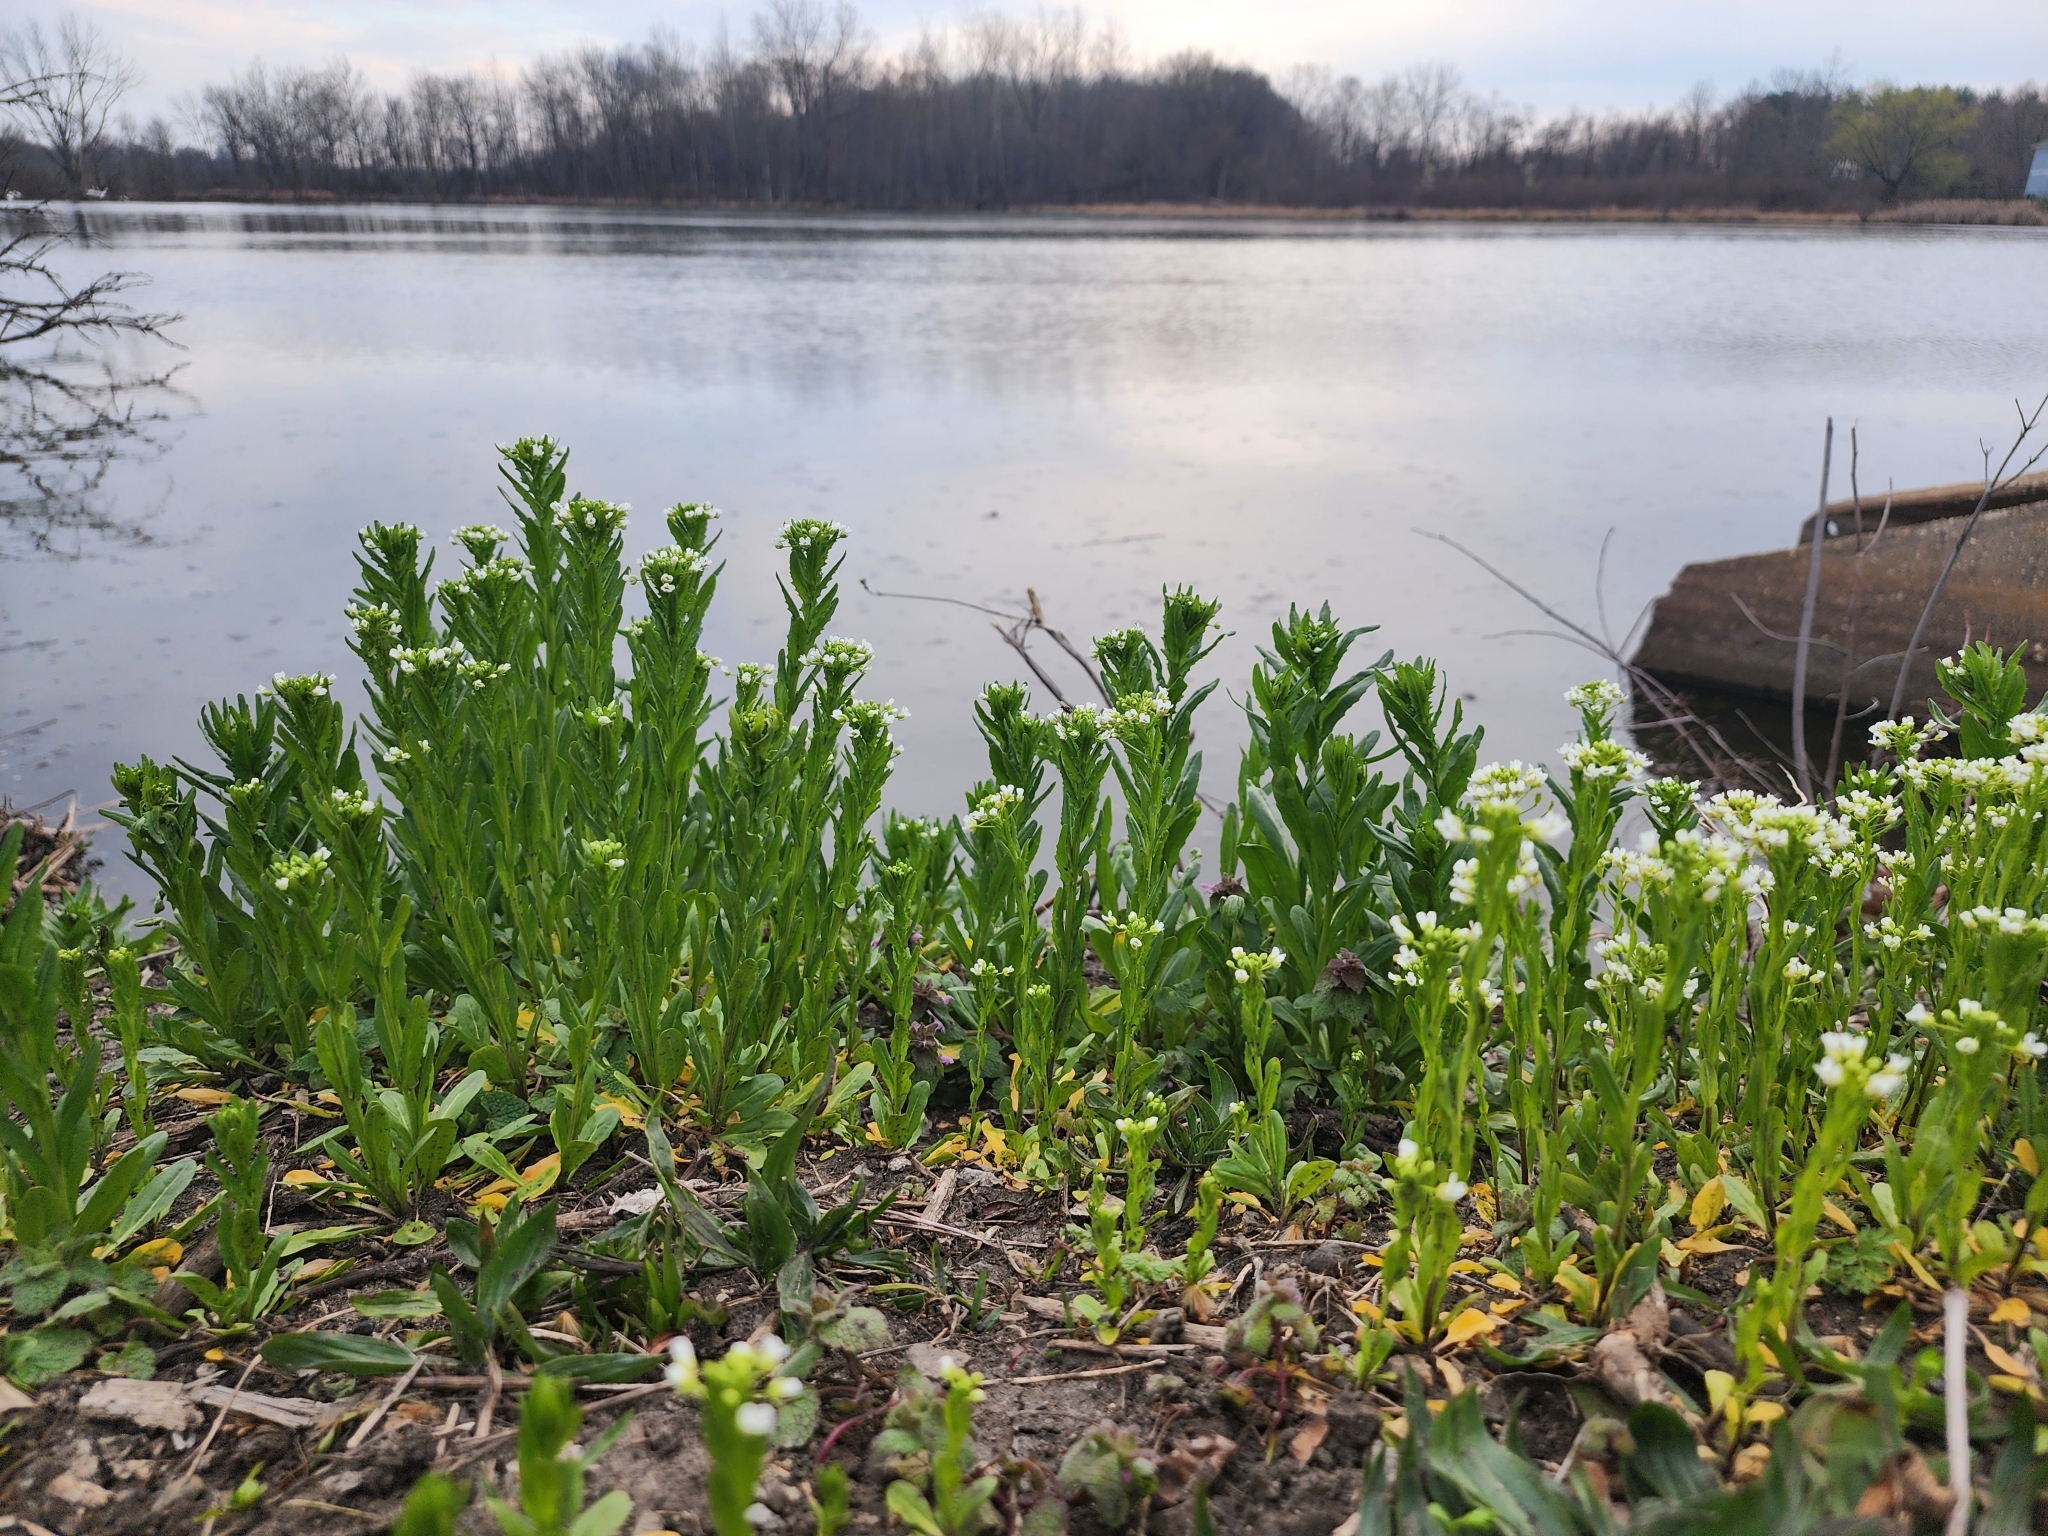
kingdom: Plantae
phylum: Tracheophyta
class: Magnoliopsida
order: Brassicales
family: Brassicaceae
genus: Thlaspi
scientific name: Thlaspi arvense
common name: Field pennycress
